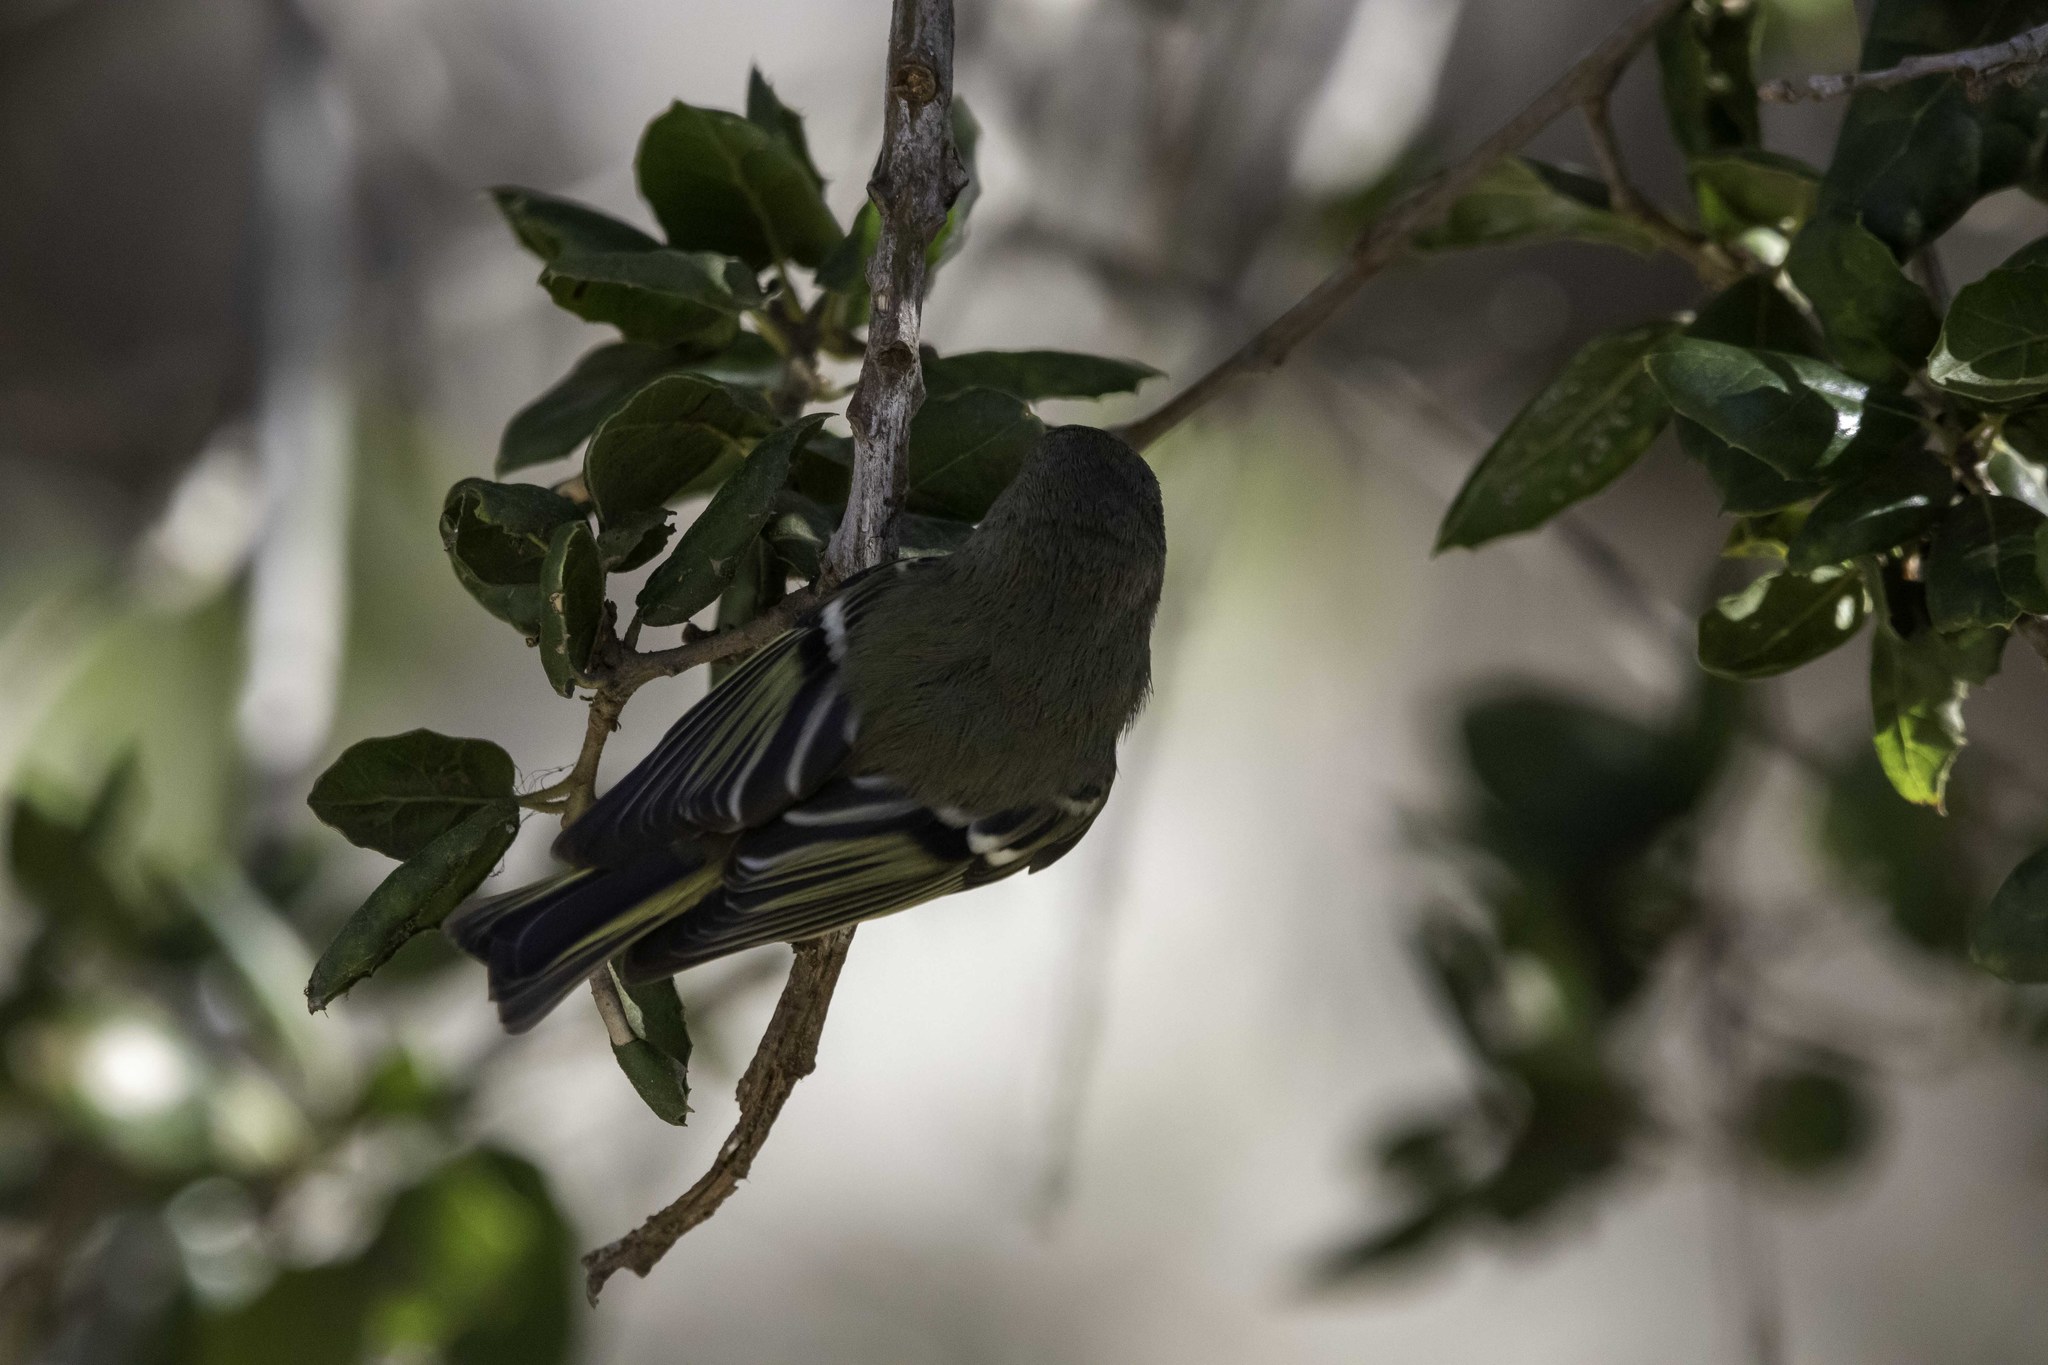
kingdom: Animalia
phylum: Chordata
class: Aves
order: Passeriformes
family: Regulidae
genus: Regulus
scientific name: Regulus calendula
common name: Ruby-crowned kinglet
